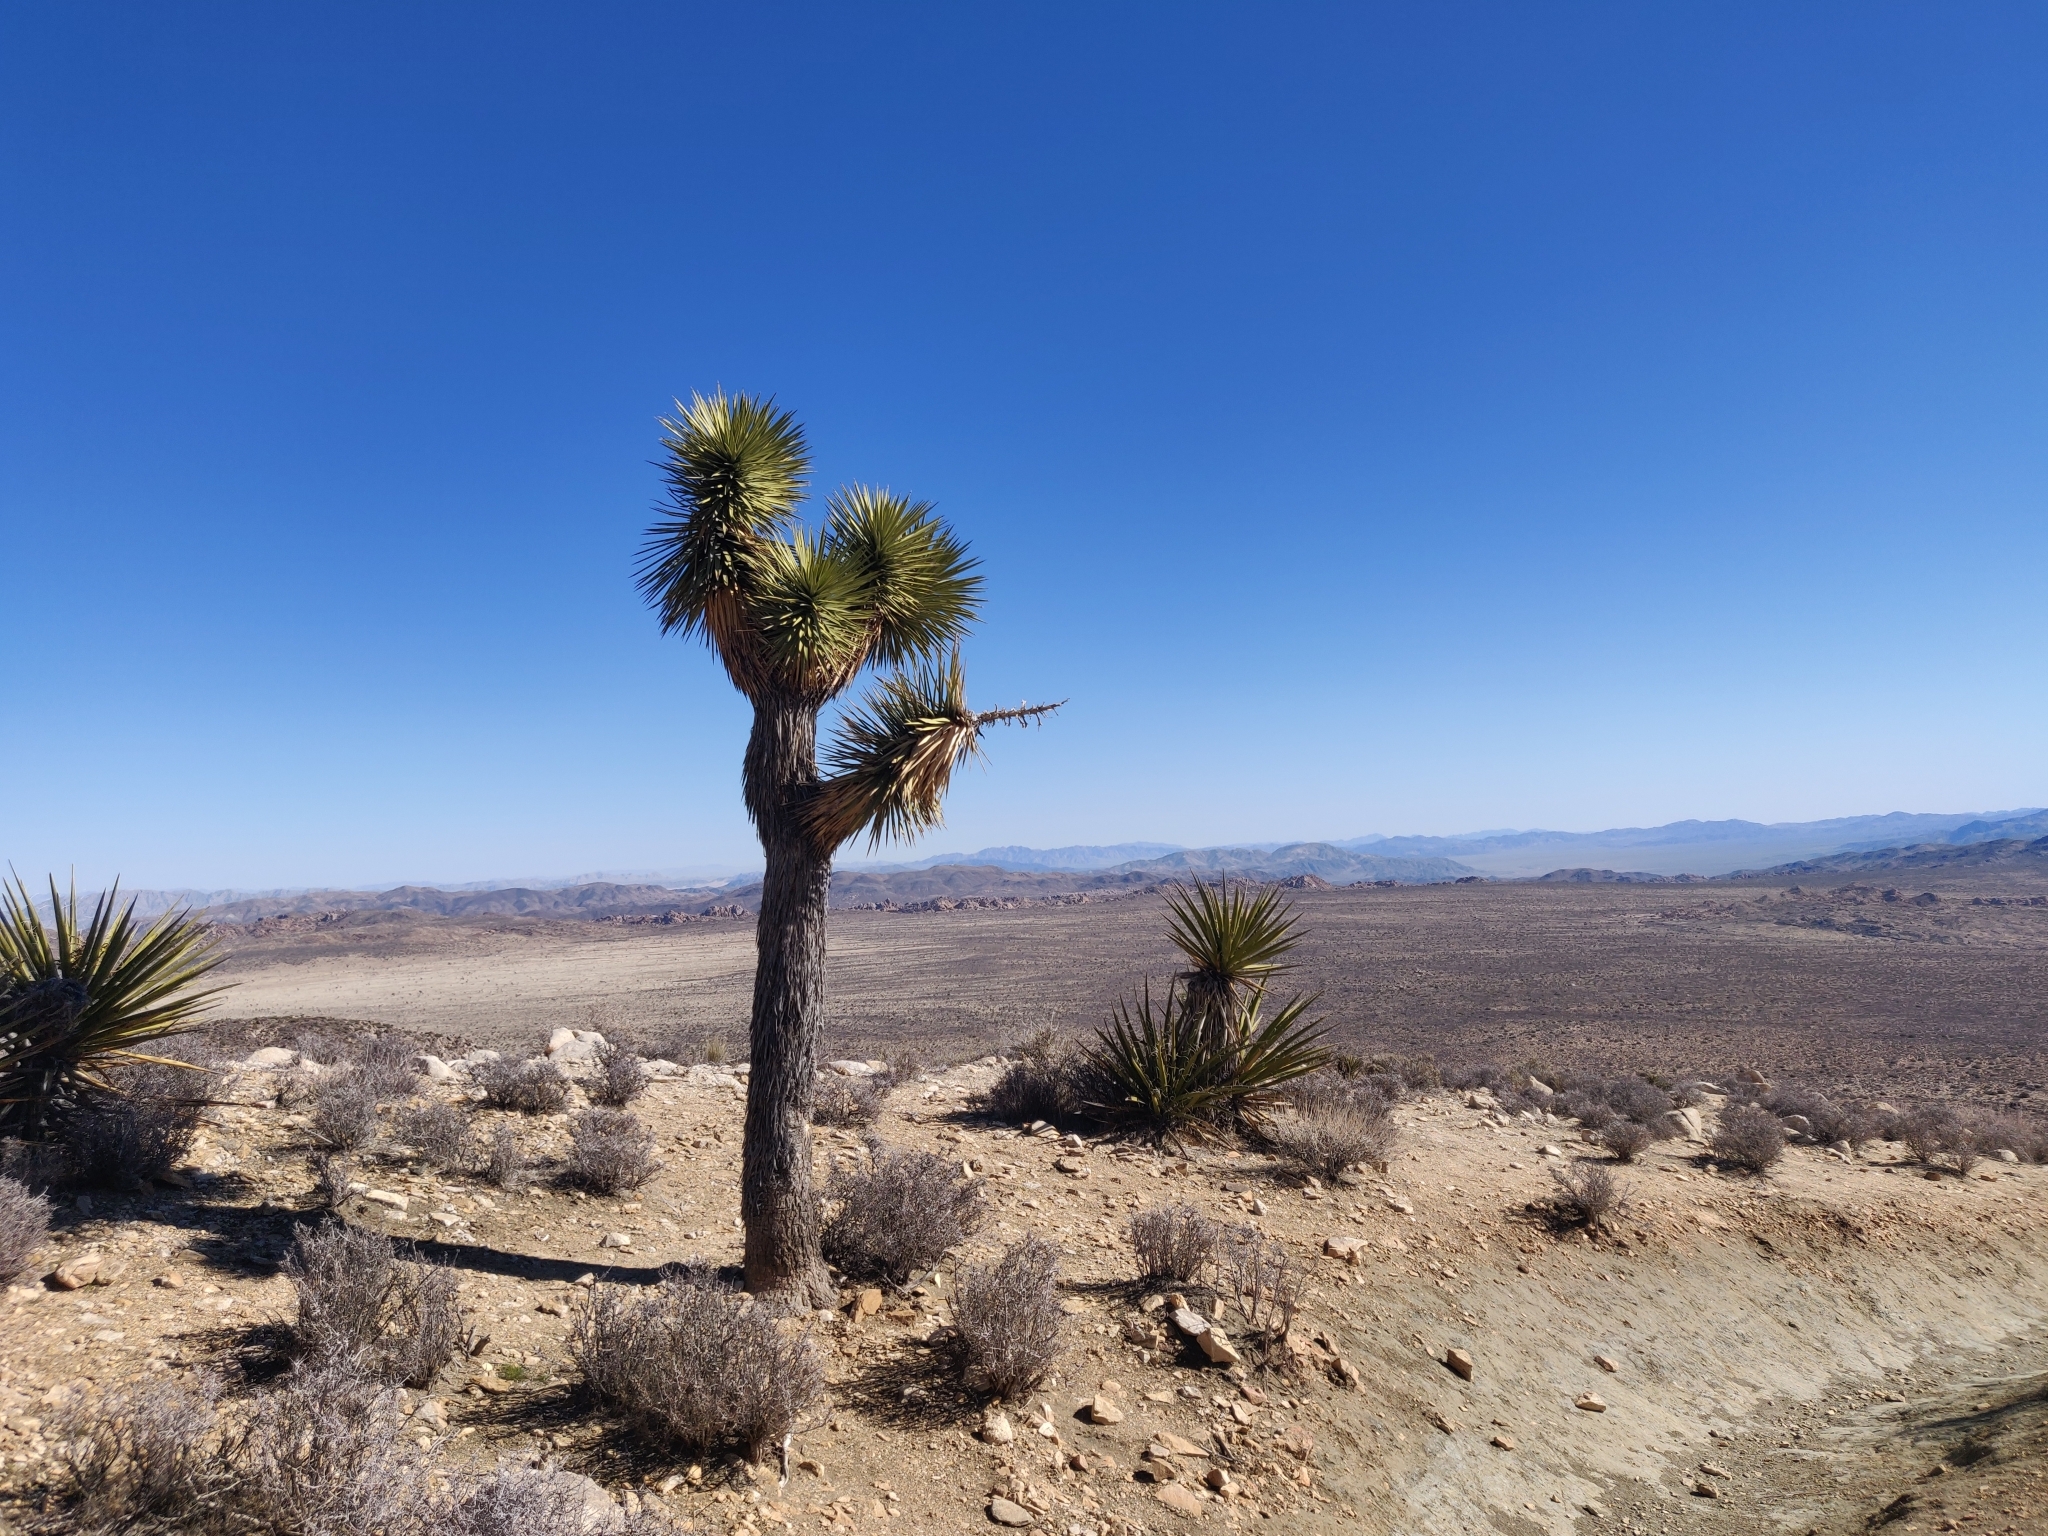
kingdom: Plantae
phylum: Tracheophyta
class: Liliopsida
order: Asparagales
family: Asparagaceae
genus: Yucca
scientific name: Yucca brevifolia
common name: Joshua tree
